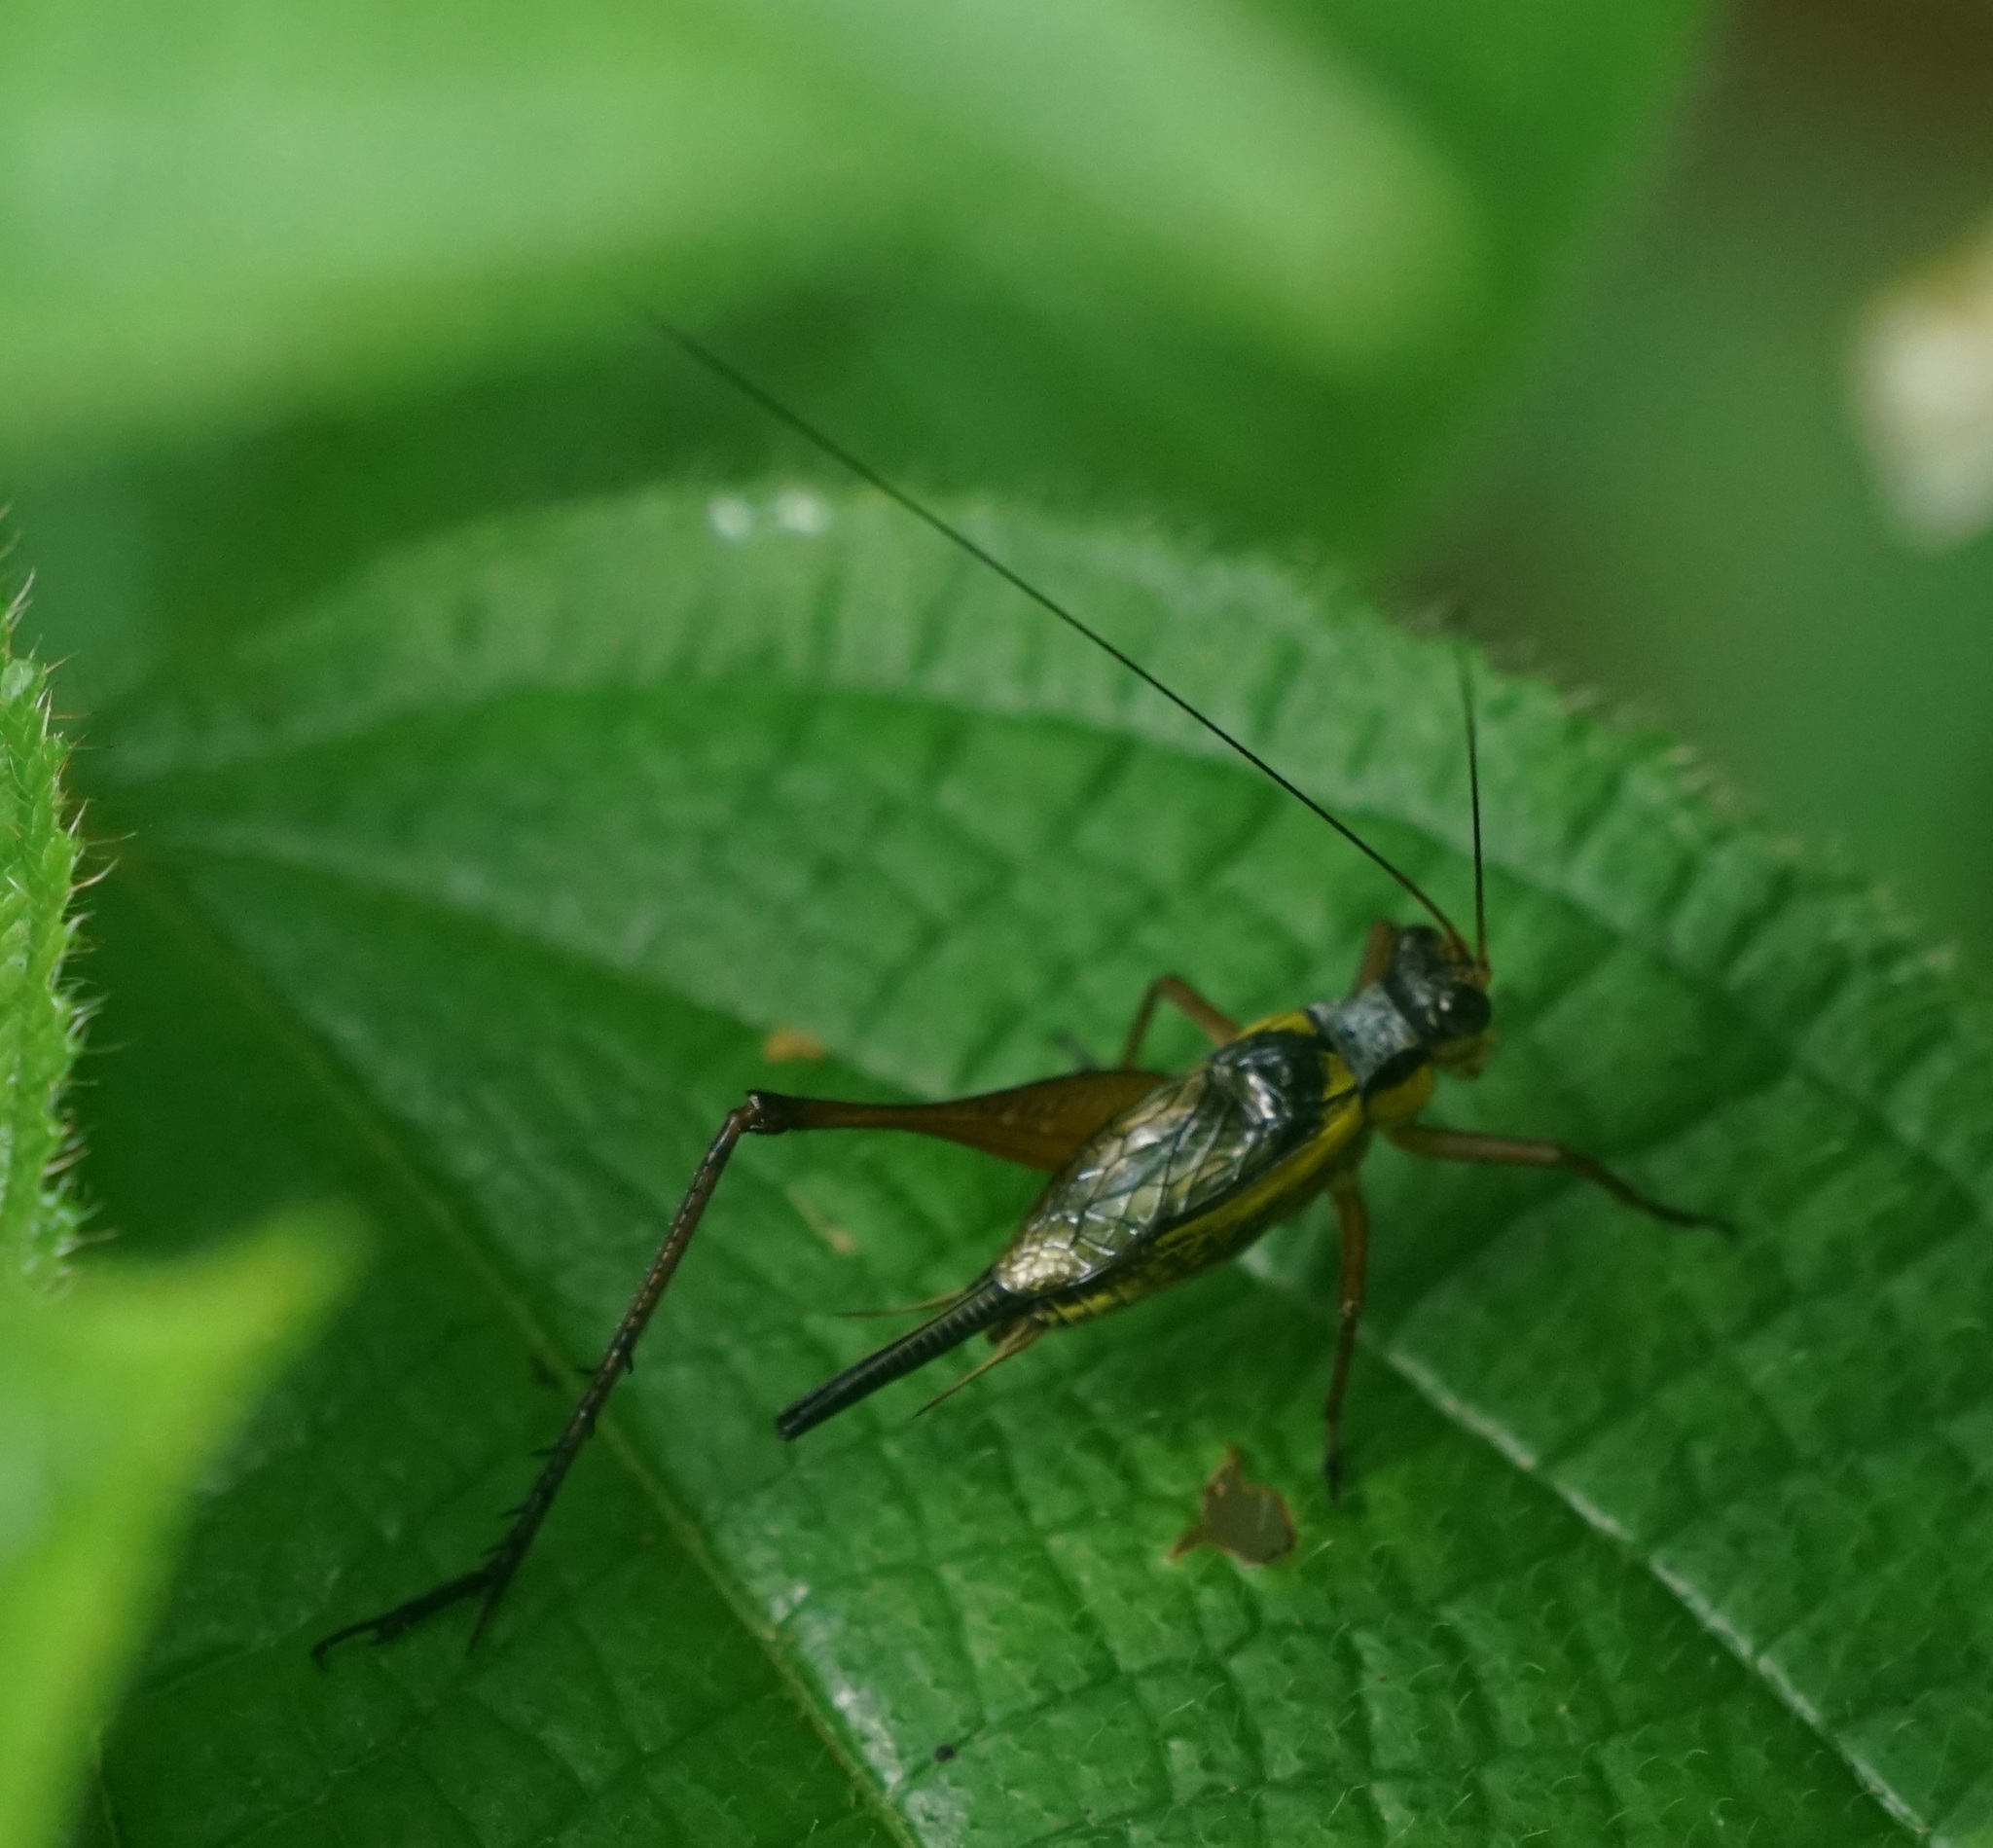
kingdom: Animalia
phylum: Arthropoda
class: Insecta
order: Orthoptera
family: Gryllidae
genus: Nisitrus
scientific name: Nisitrus vittatus
